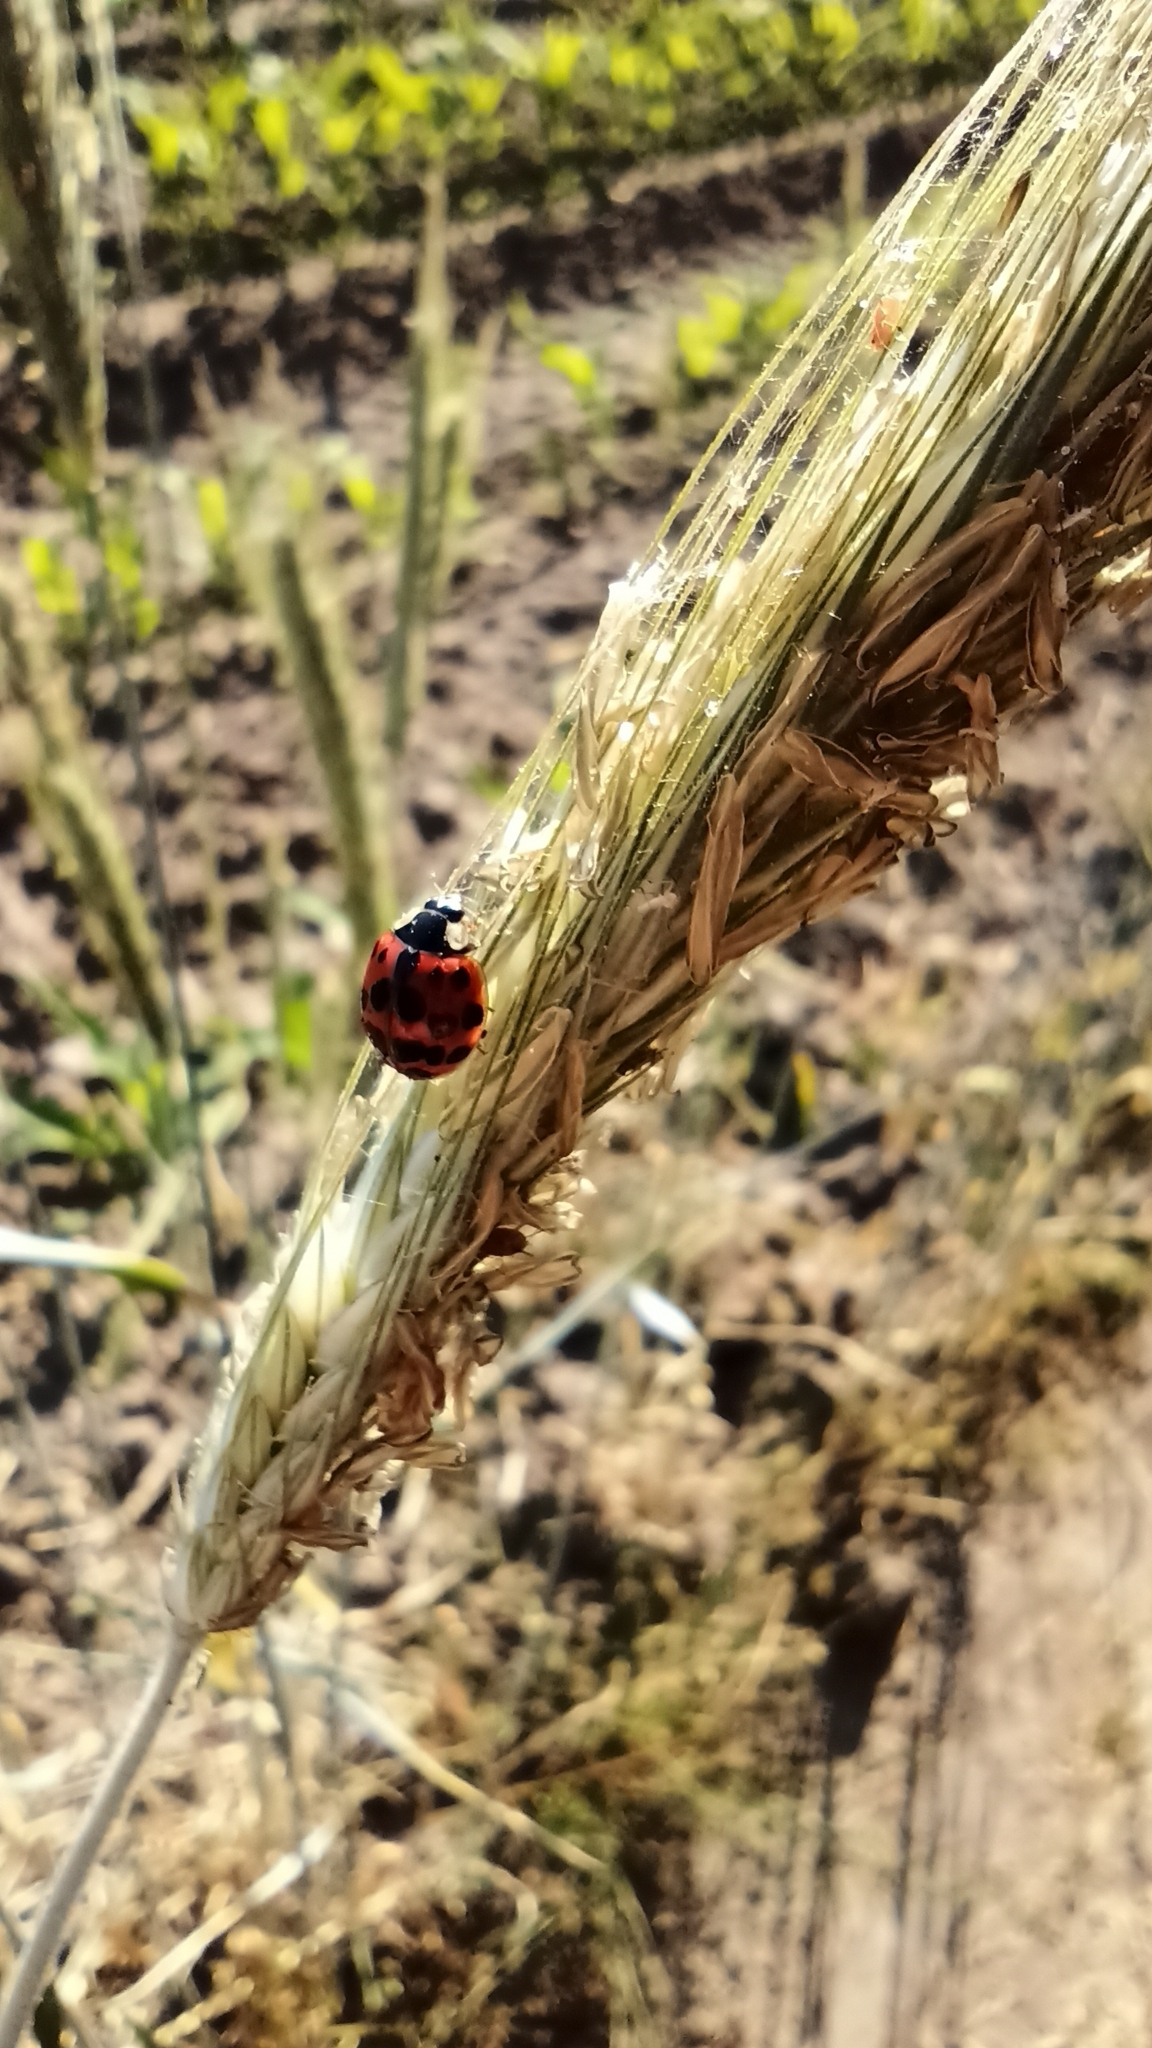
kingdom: Animalia
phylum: Arthropoda
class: Insecta
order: Coleoptera
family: Coccinellidae
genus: Harmonia
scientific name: Harmonia axyridis
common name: Harlequin ladybird
